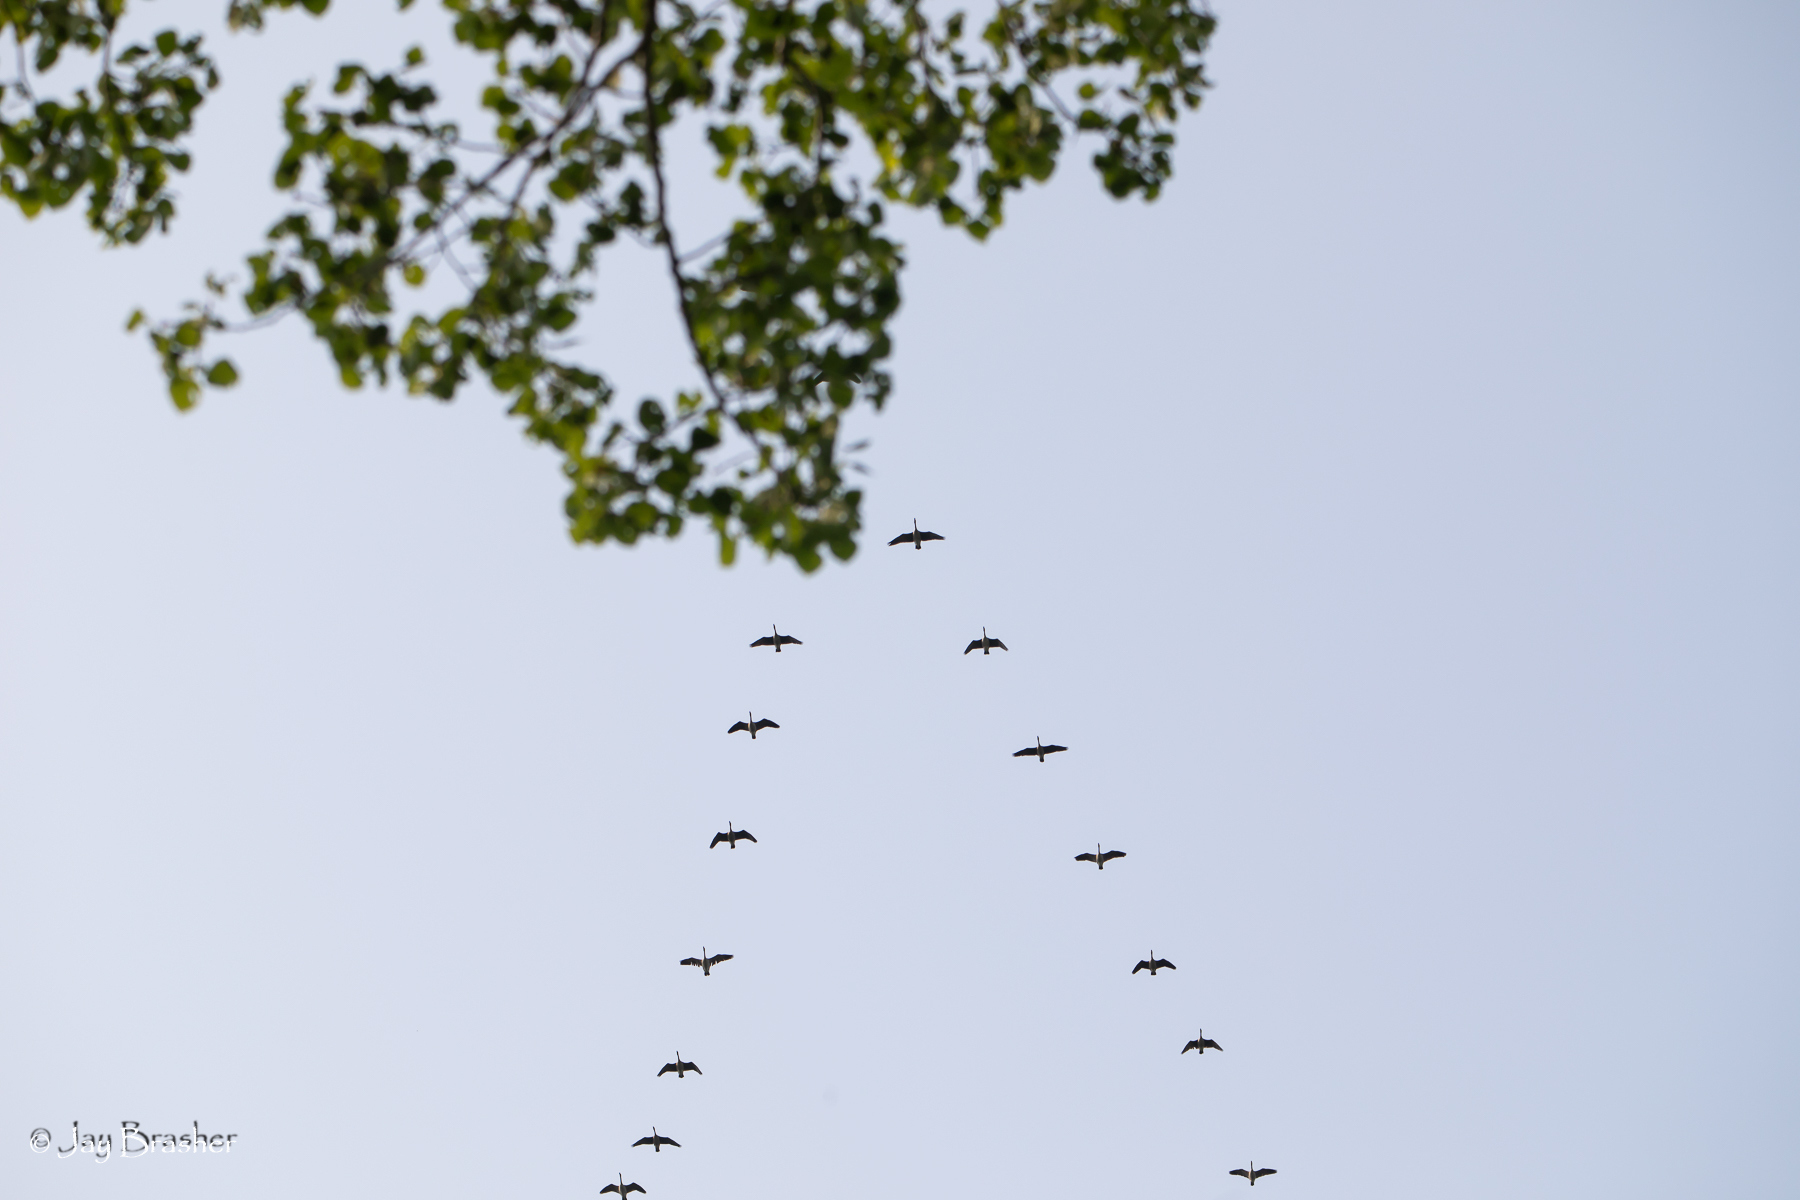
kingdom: Animalia
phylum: Chordata
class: Aves
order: Anseriformes
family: Anatidae
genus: Branta
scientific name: Branta canadensis
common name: Canada goose
